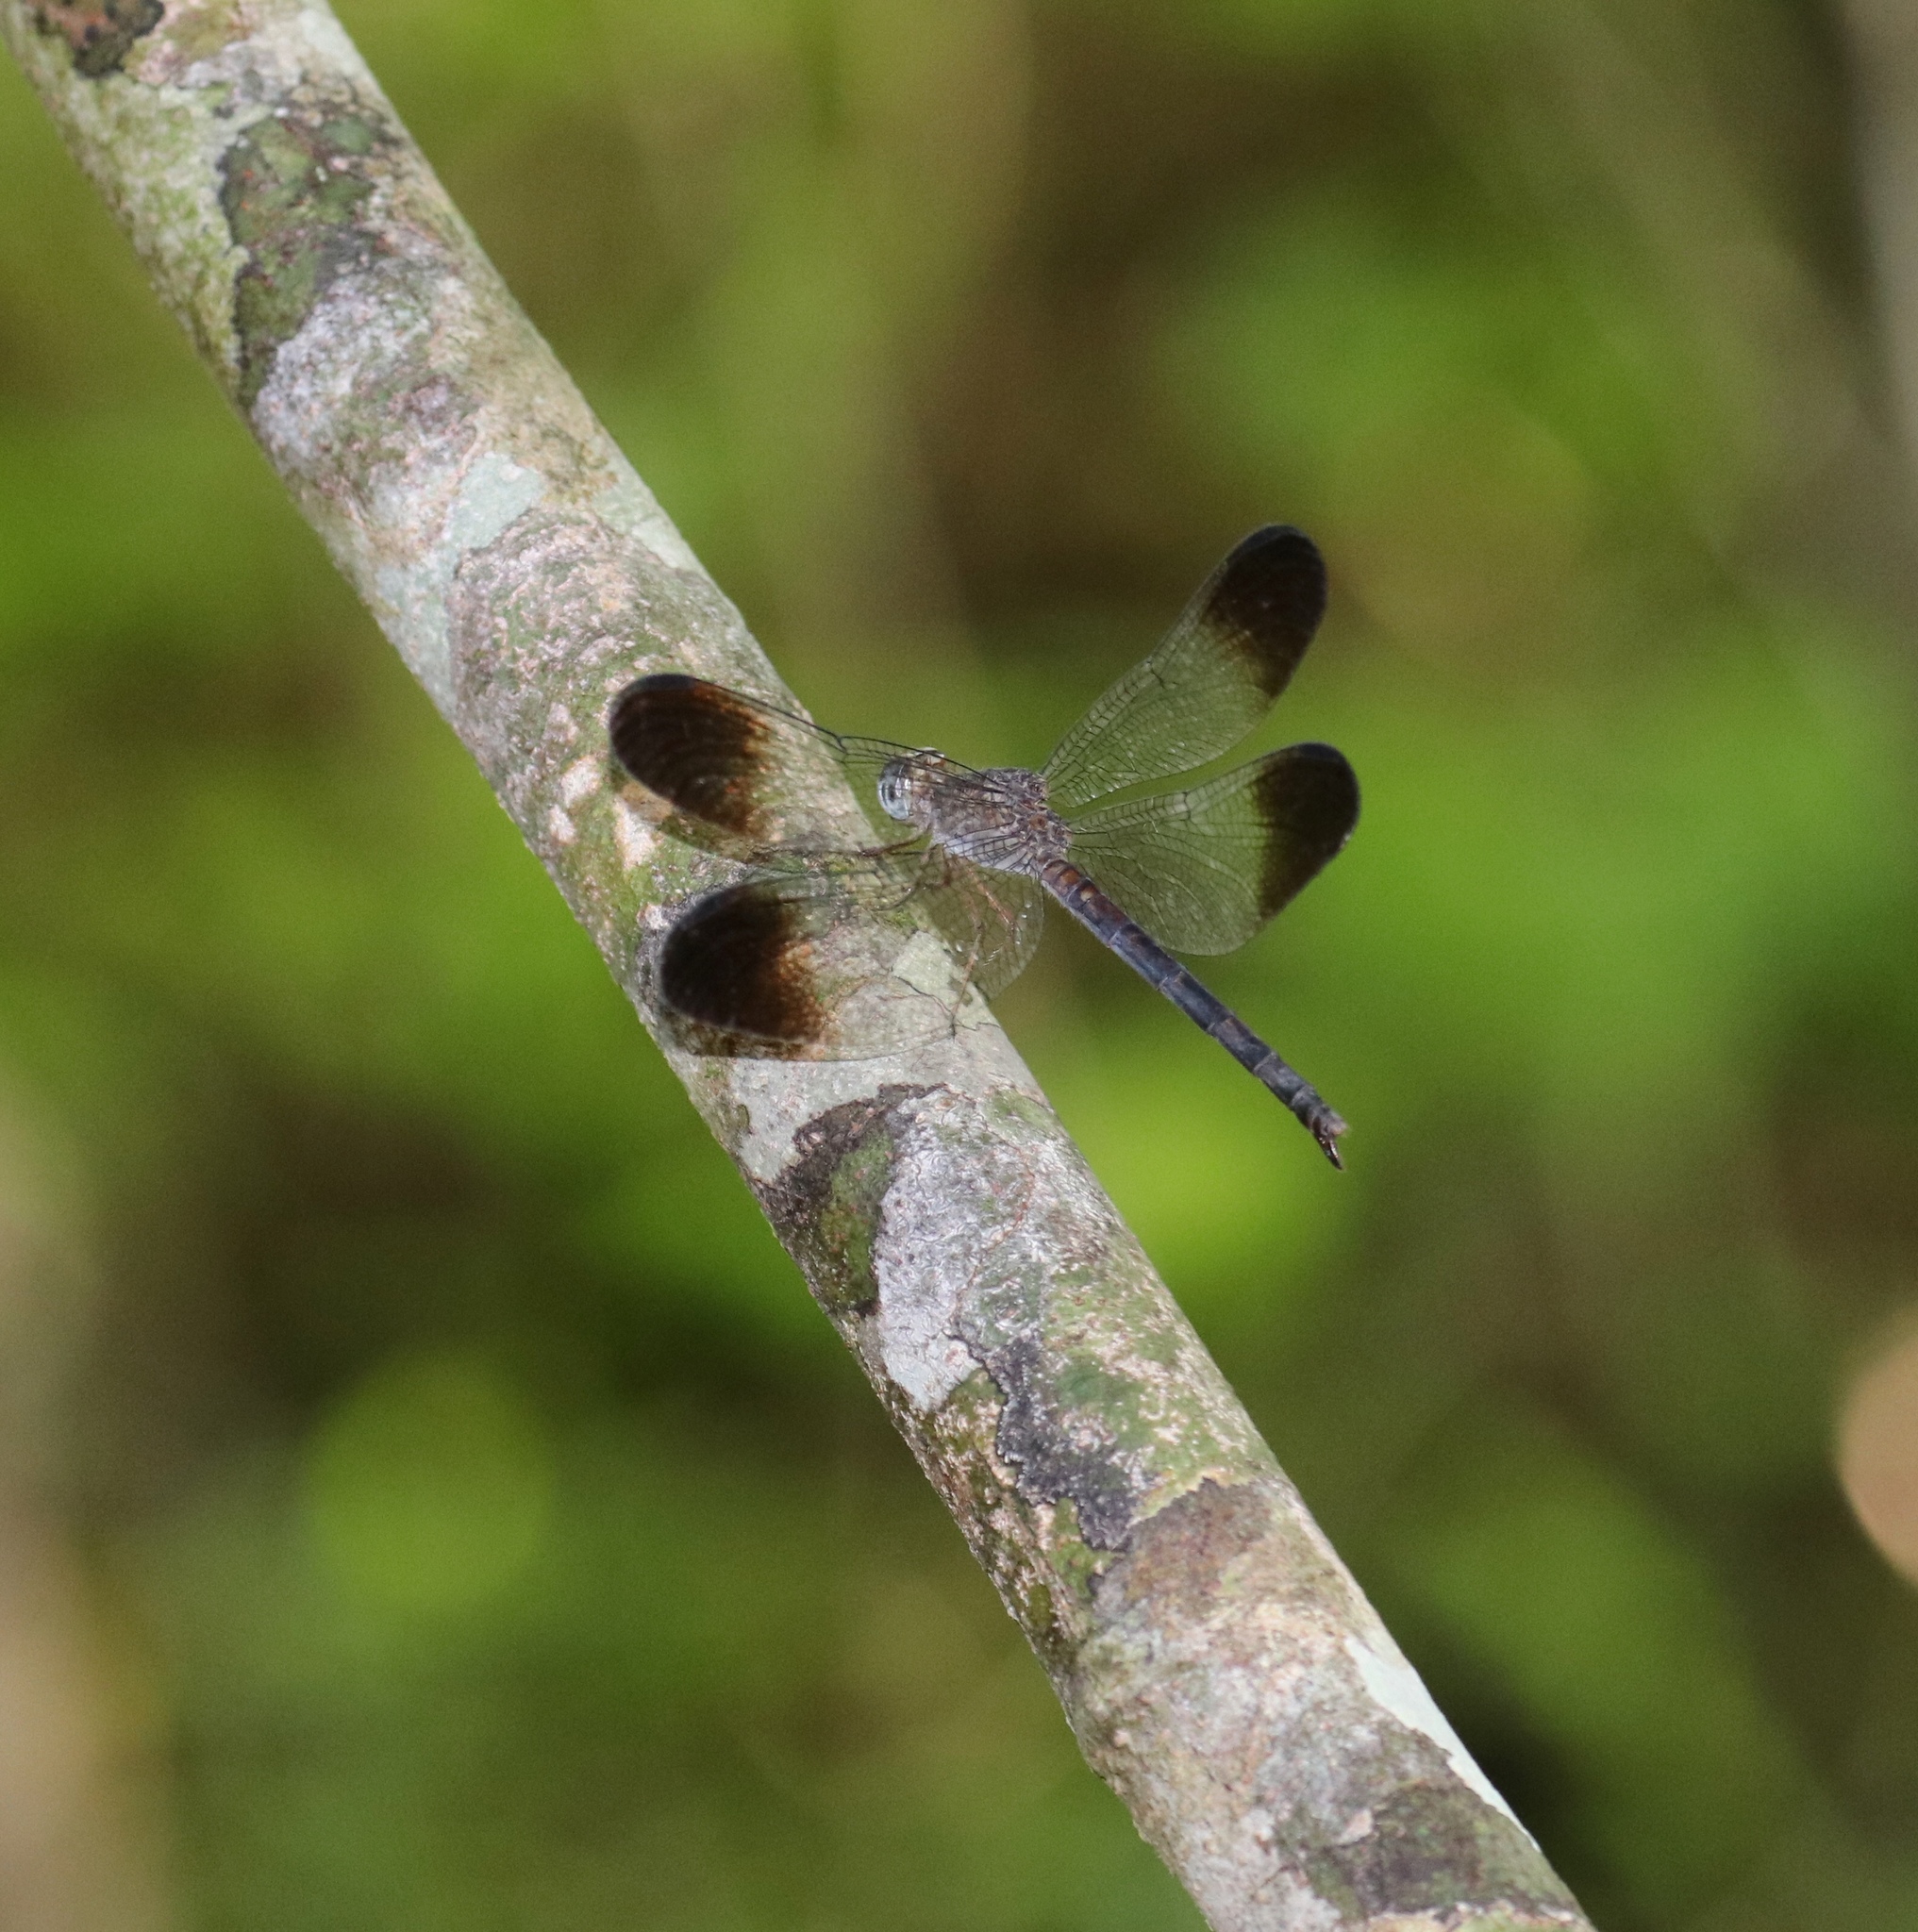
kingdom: Animalia
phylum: Arthropoda
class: Insecta
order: Odonata
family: Libellulidae
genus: Uracis
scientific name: Uracis fastigiata
